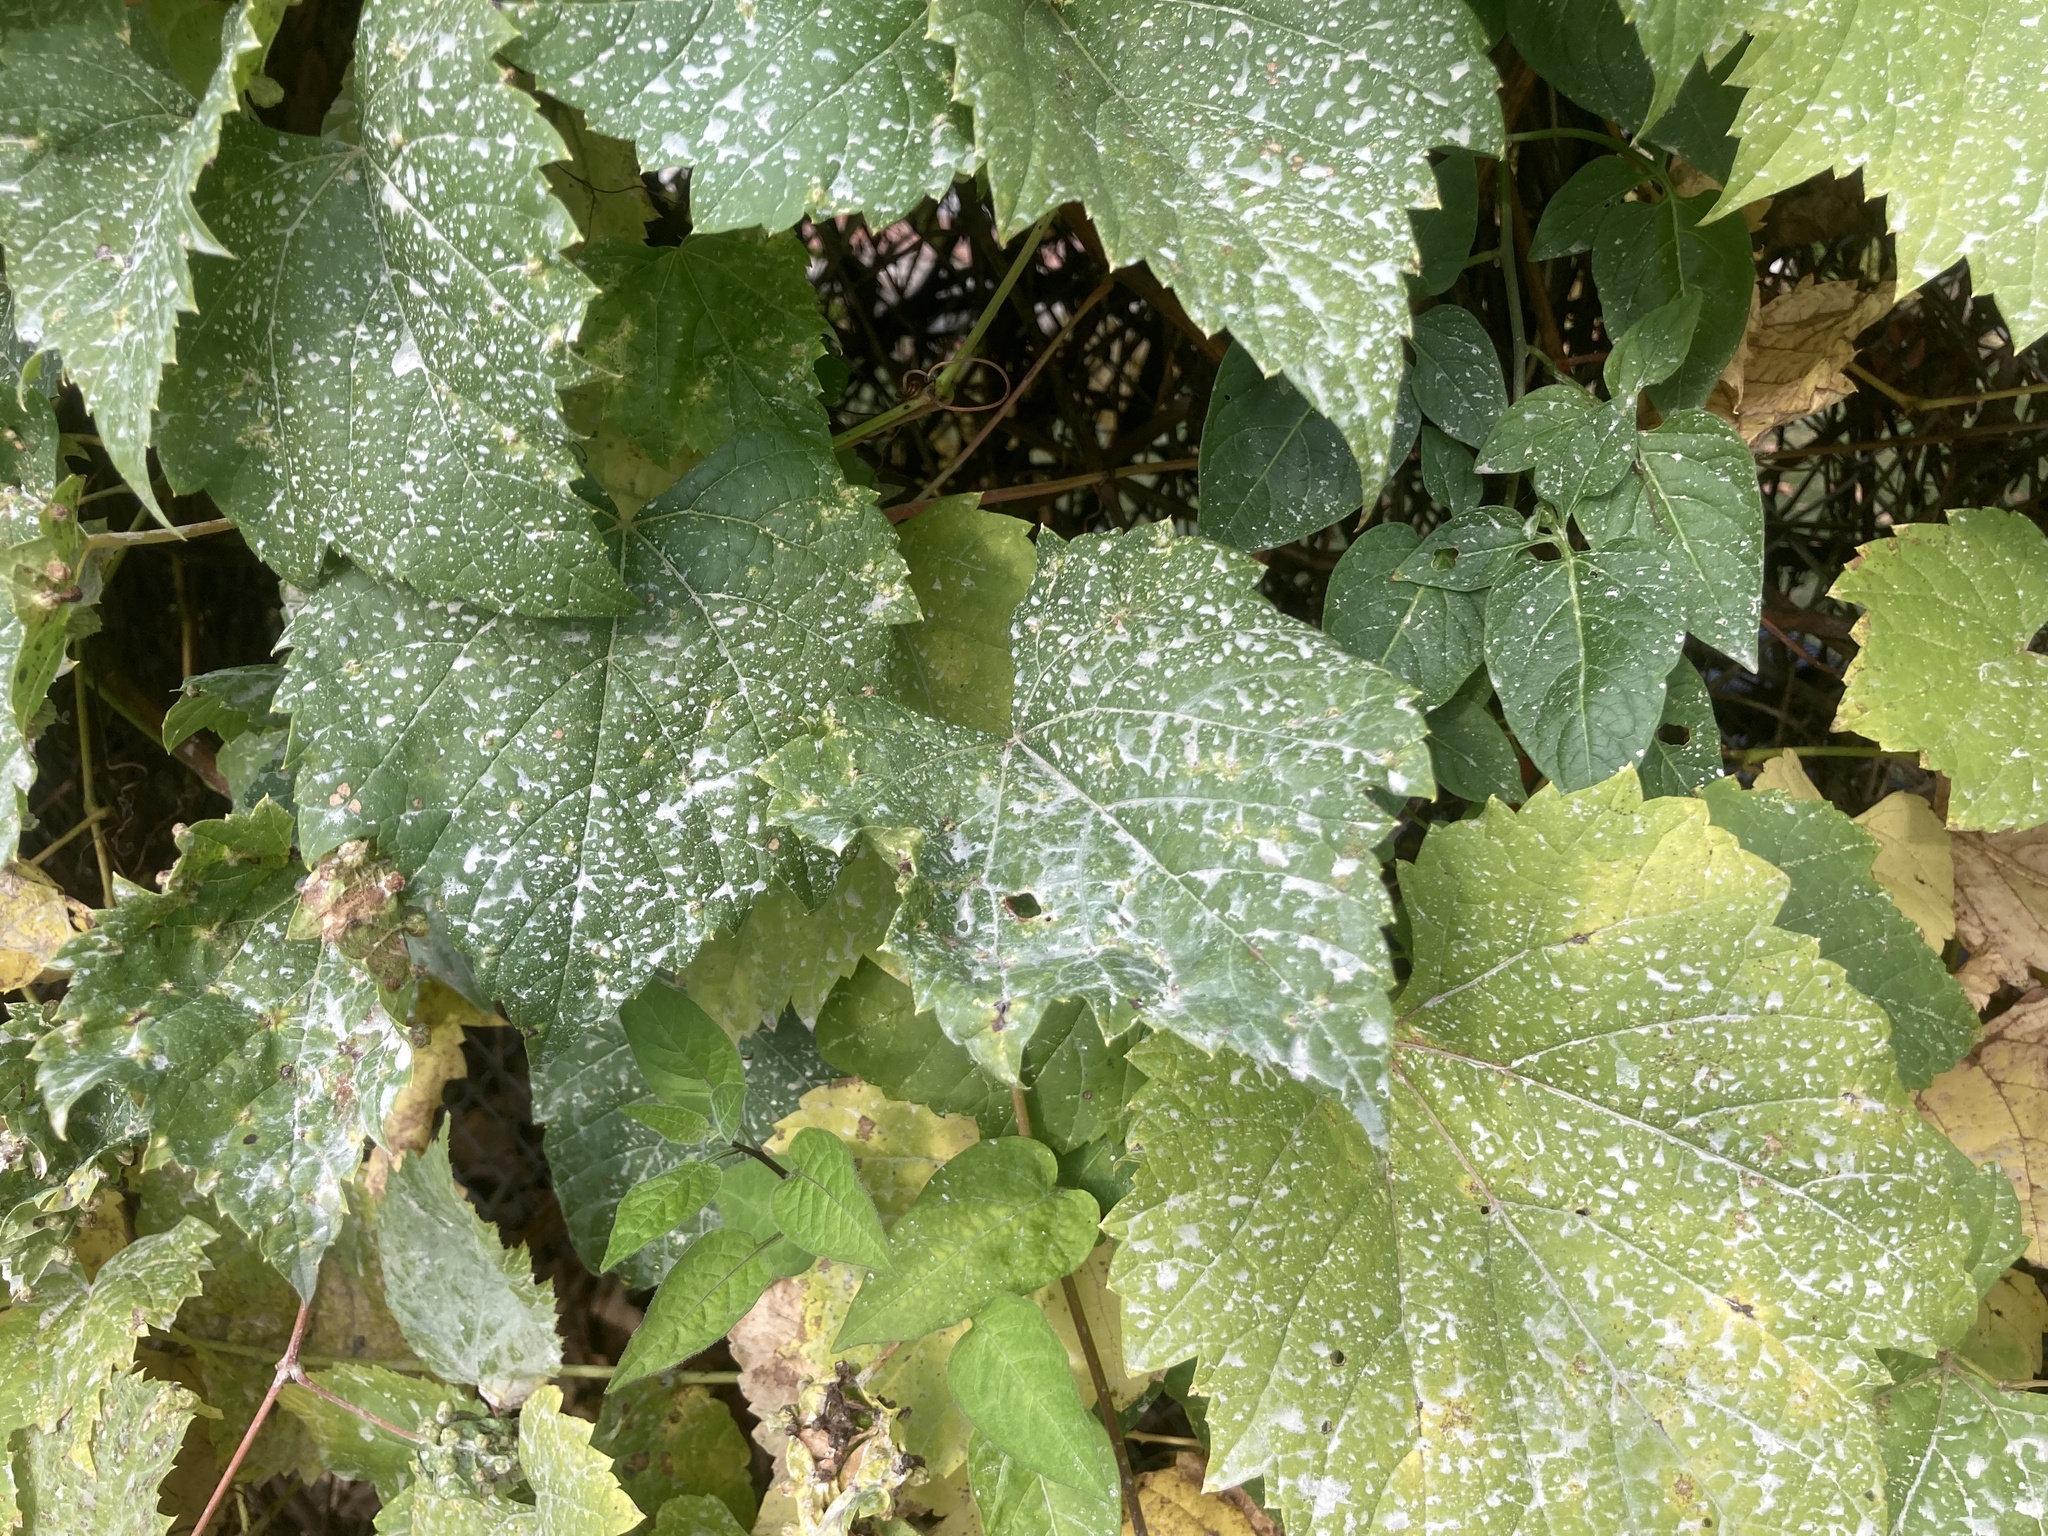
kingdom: Plantae
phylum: Tracheophyta
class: Magnoliopsida
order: Vitales
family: Vitaceae
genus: Vitis
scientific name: Vitis riparia
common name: Frost grape
